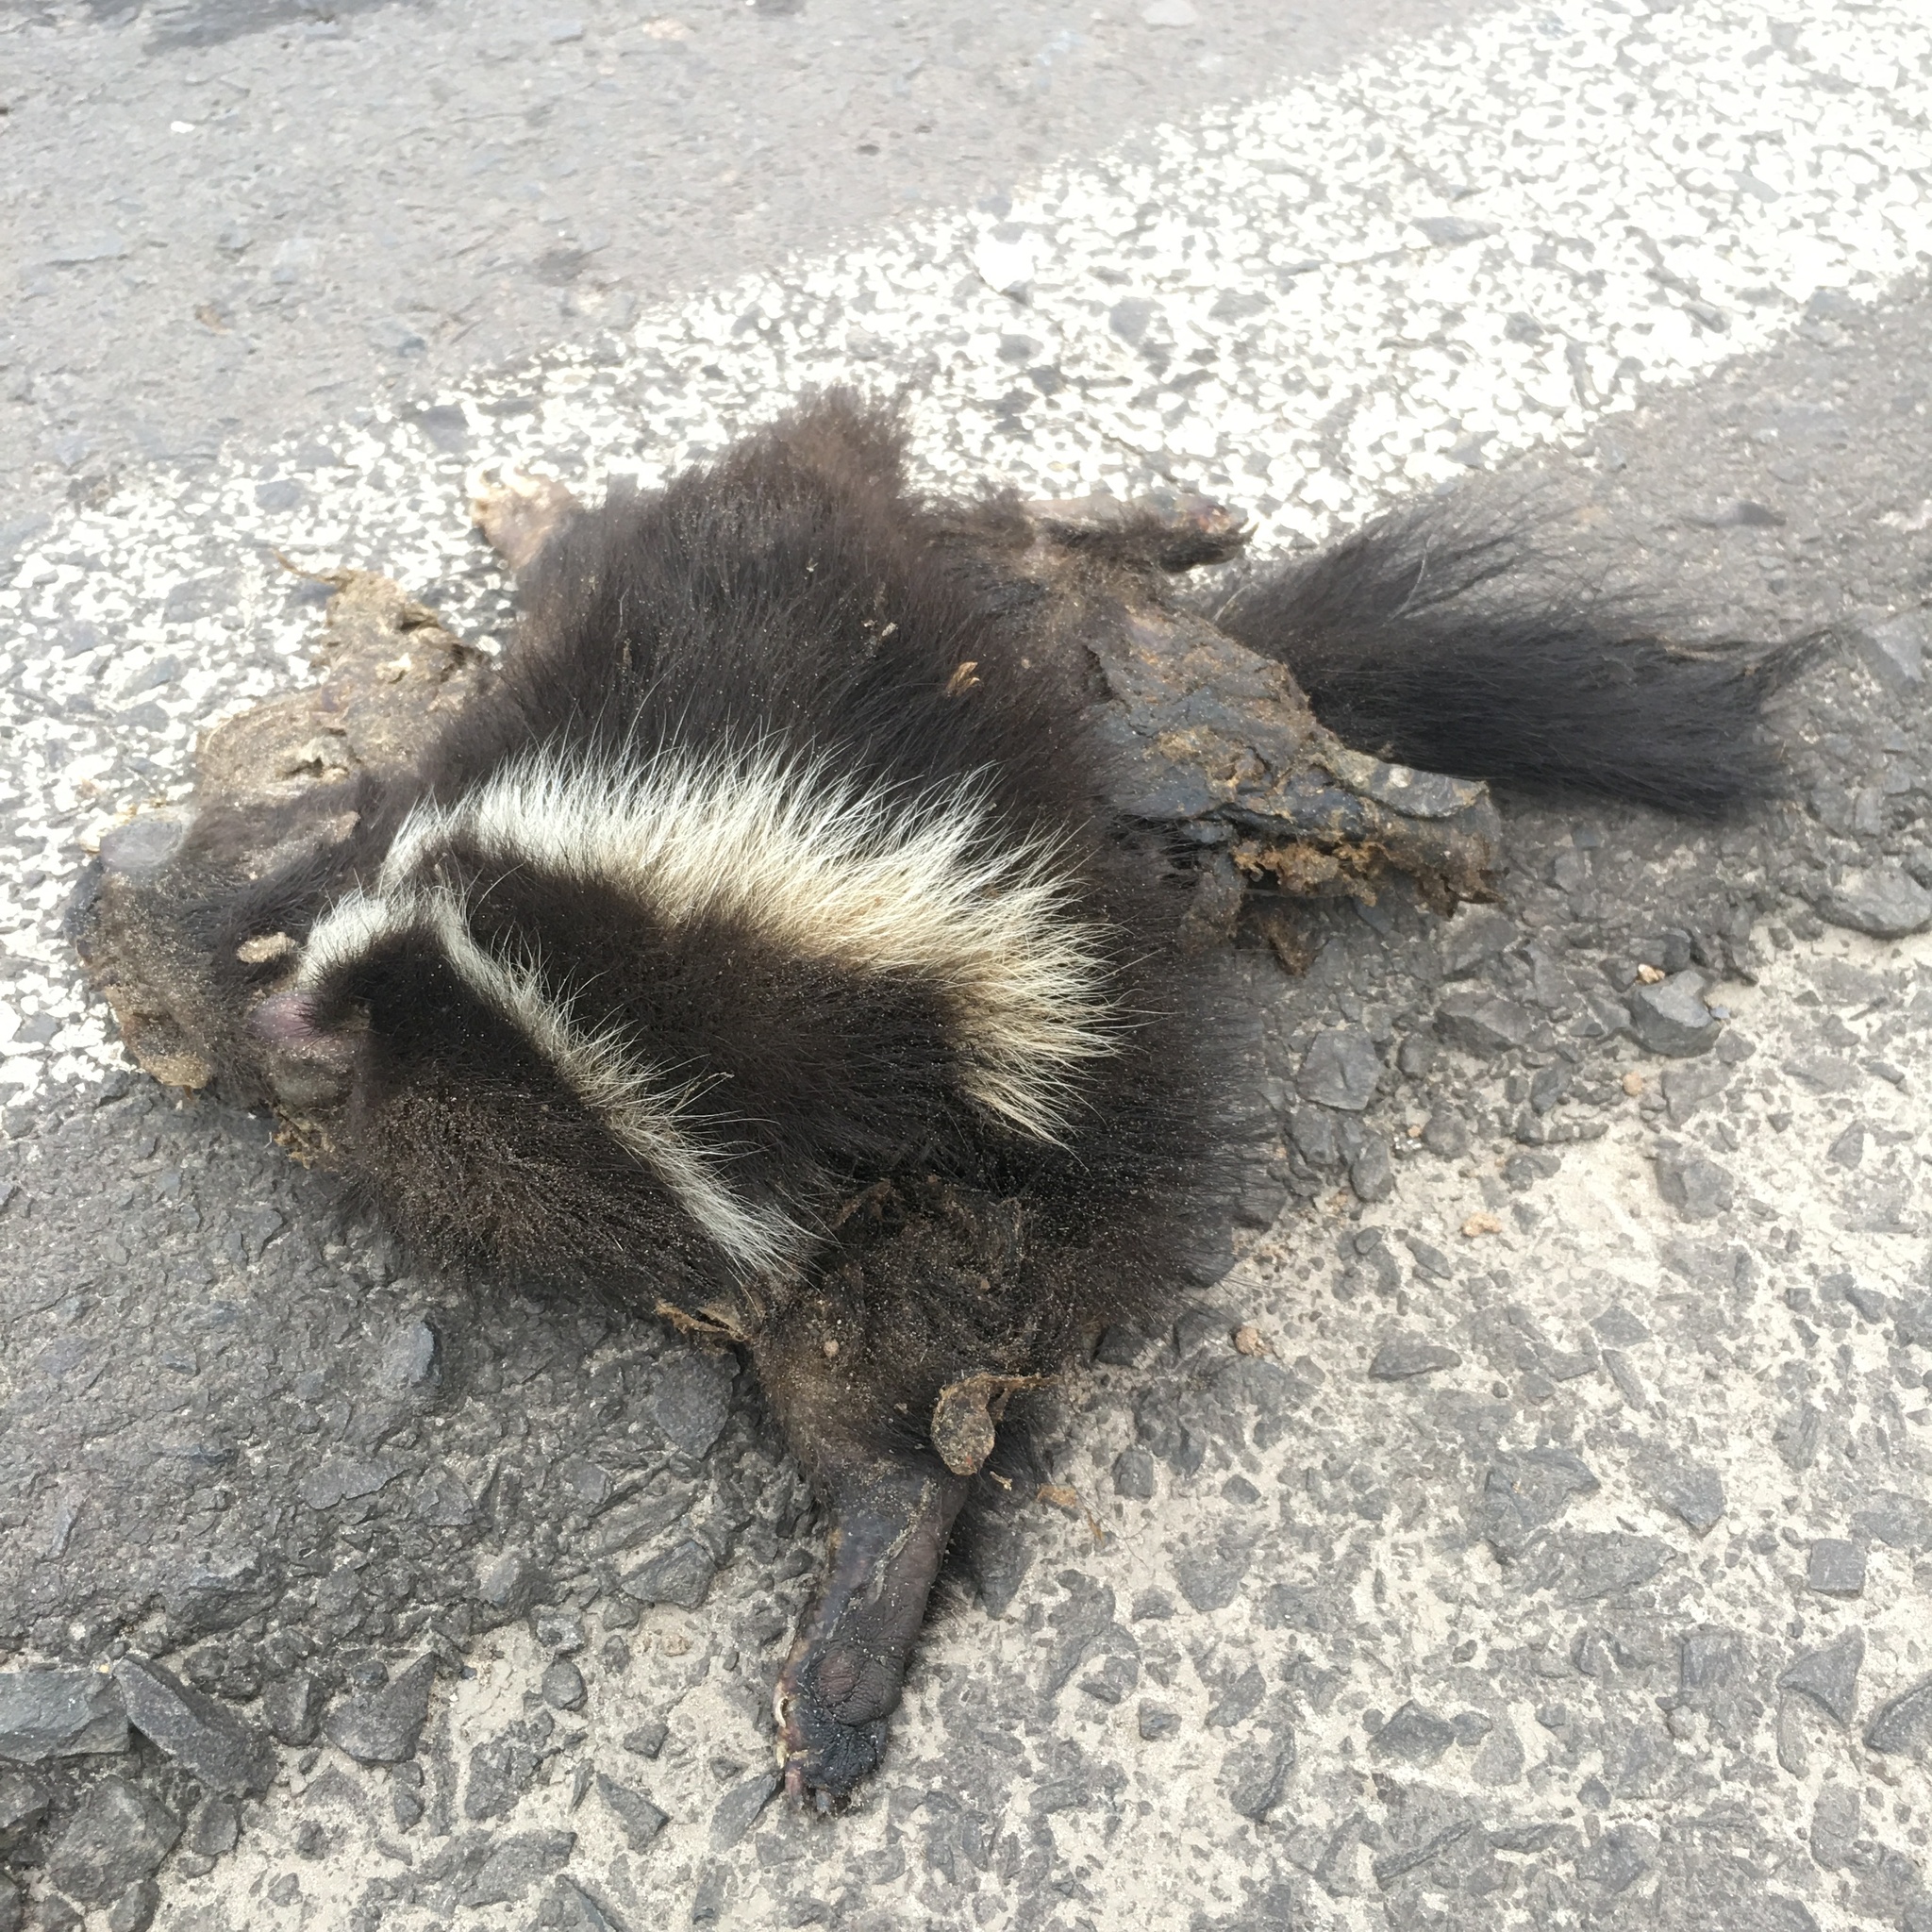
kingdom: Animalia
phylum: Chordata
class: Mammalia
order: Carnivora
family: Mephitidae
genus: Conepatus
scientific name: Conepatus chinga
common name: Molina's hog-nosed skunk
